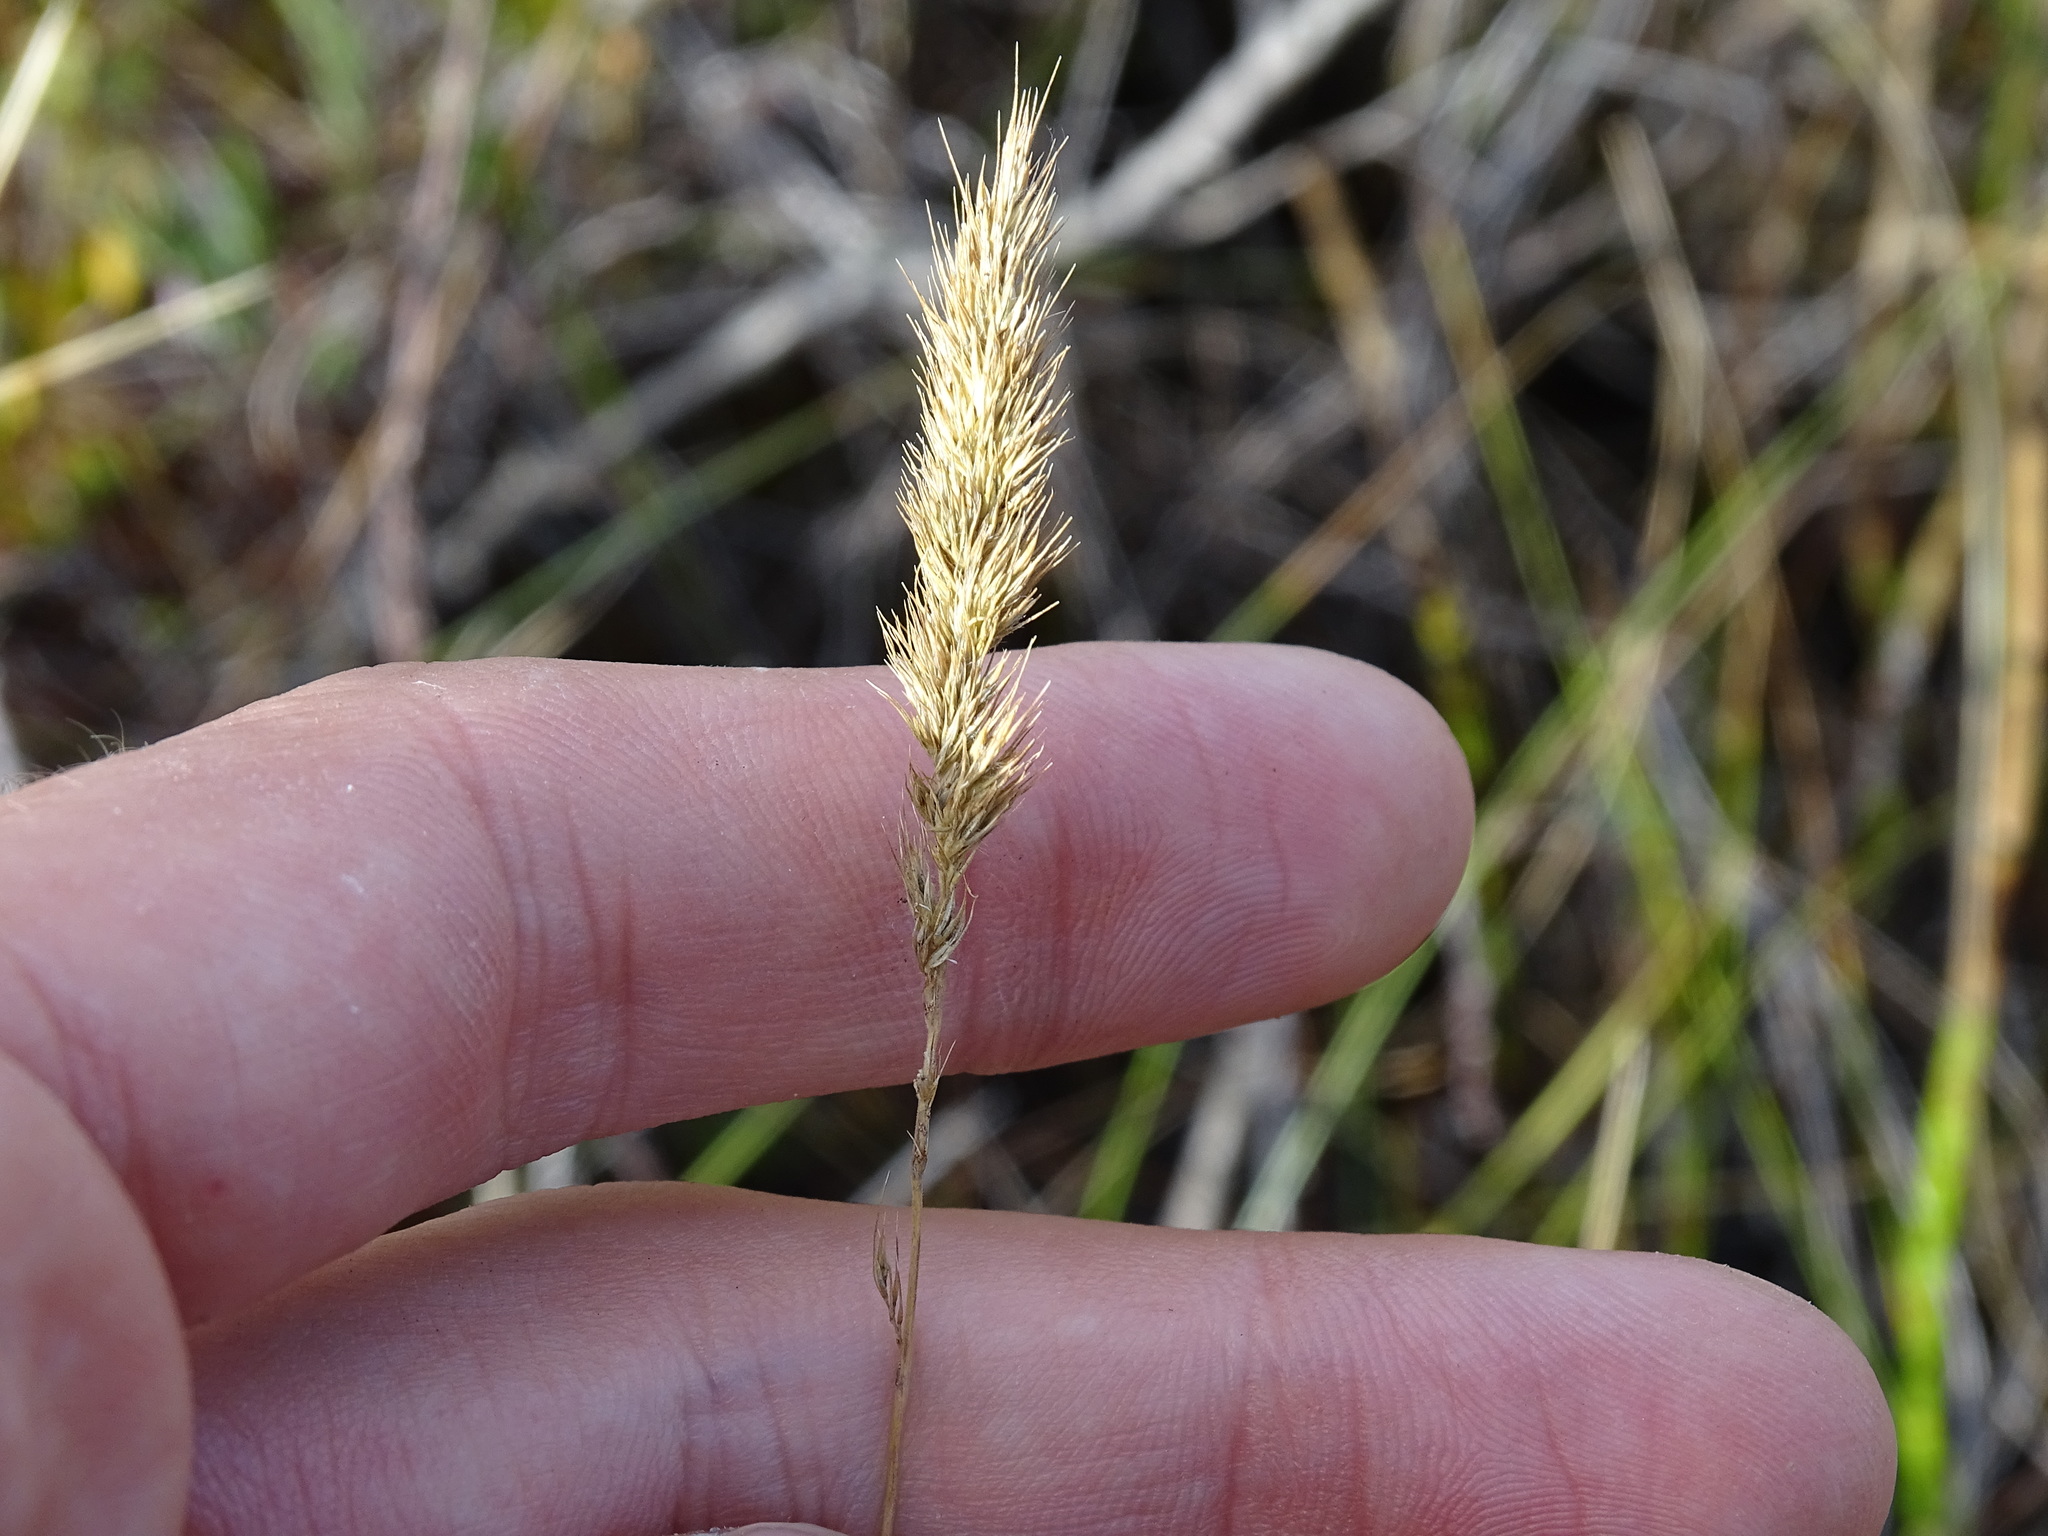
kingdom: Plantae
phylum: Tracheophyta
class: Liliopsida
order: Poales
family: Poaceae
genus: Muhlenbergia
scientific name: Muhlenbergia glomerata
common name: Bog muhly
